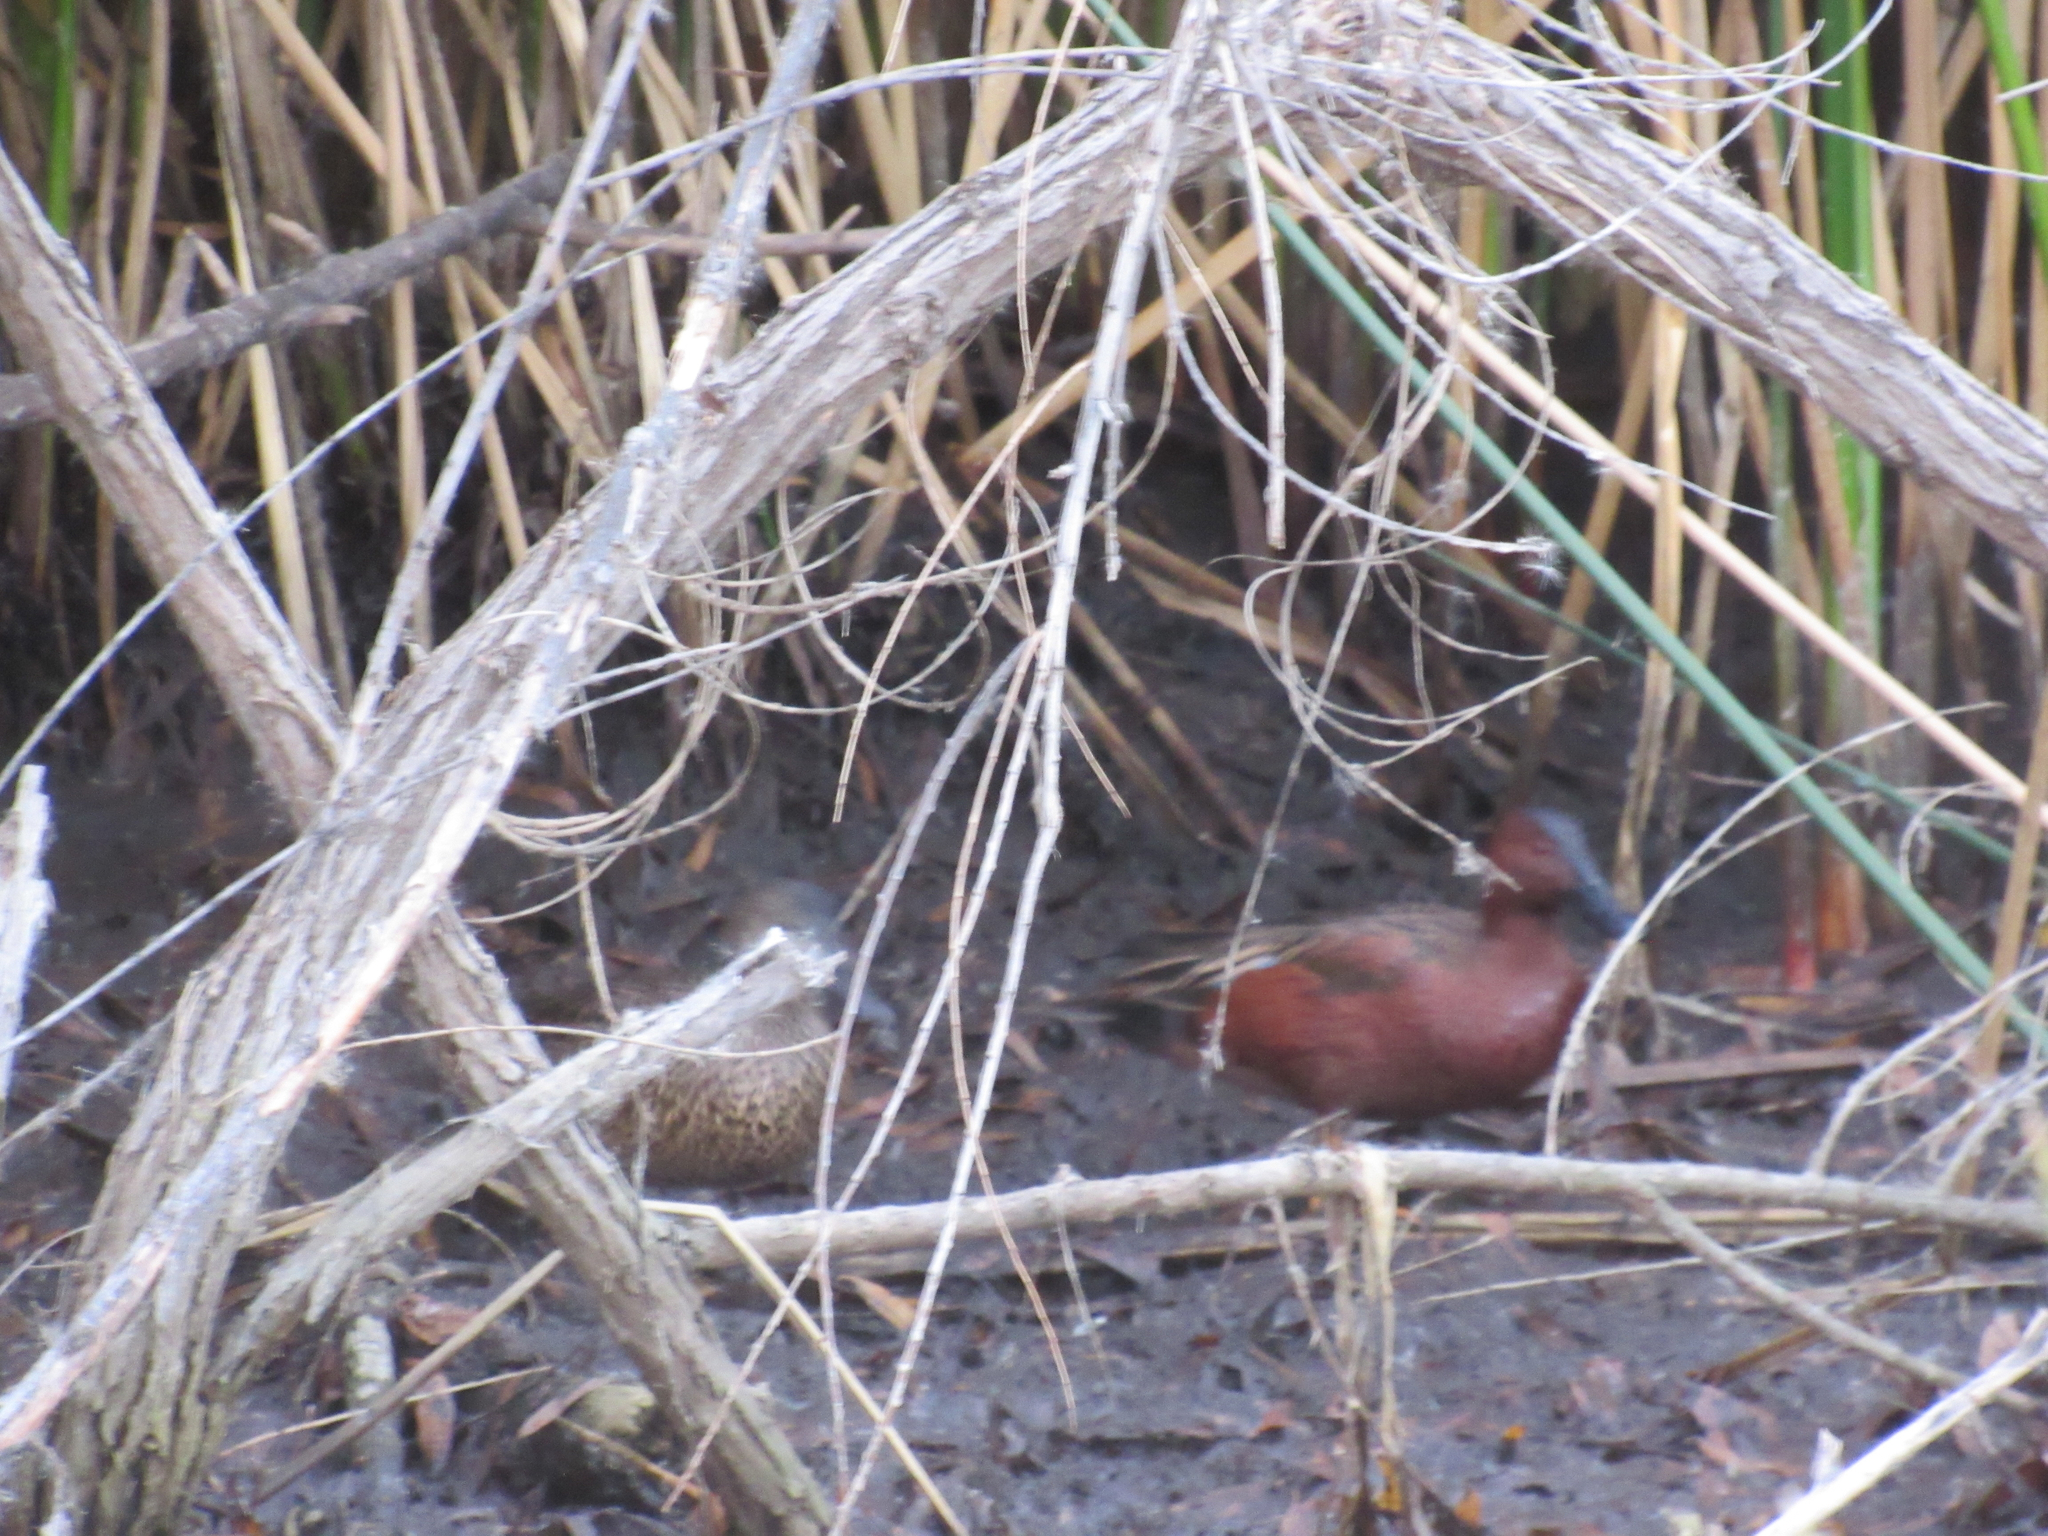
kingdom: Animalia
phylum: Chordata
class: Aves
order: Anseriformes
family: Anatidae
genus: Spatula
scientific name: Spatula cyanoptera
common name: Cinnamon teal
